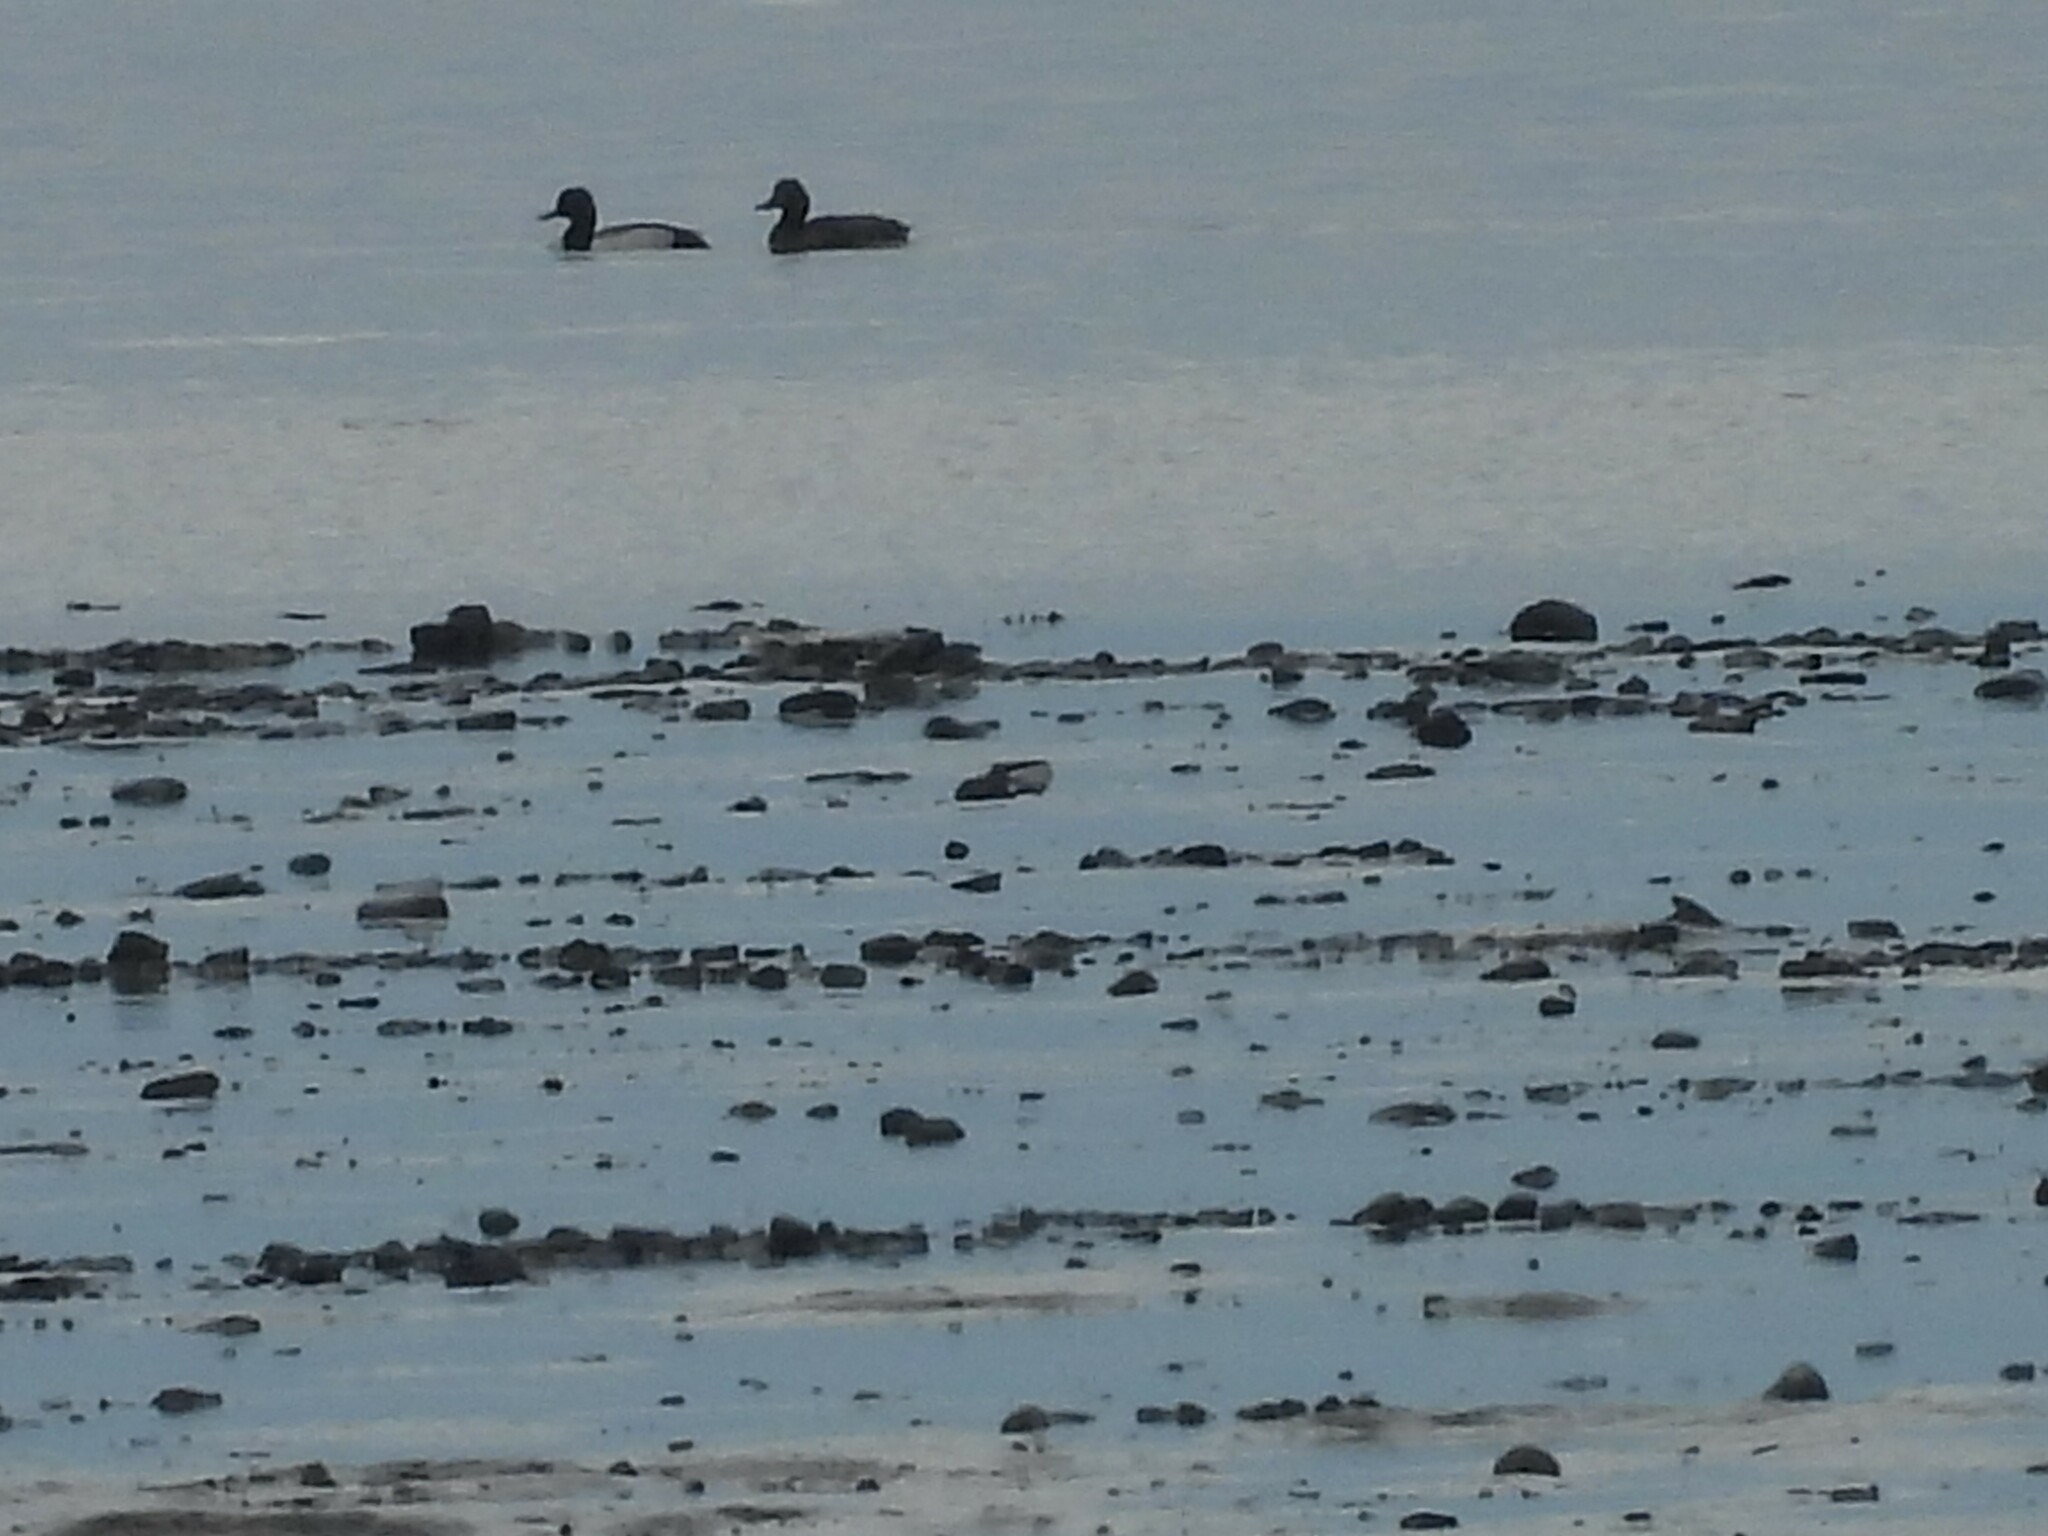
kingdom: Animalia
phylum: Chordata
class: Aves
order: Anseriformes
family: Anatidae
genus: Aythya
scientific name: Aythya affinis
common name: Lesser scaup
